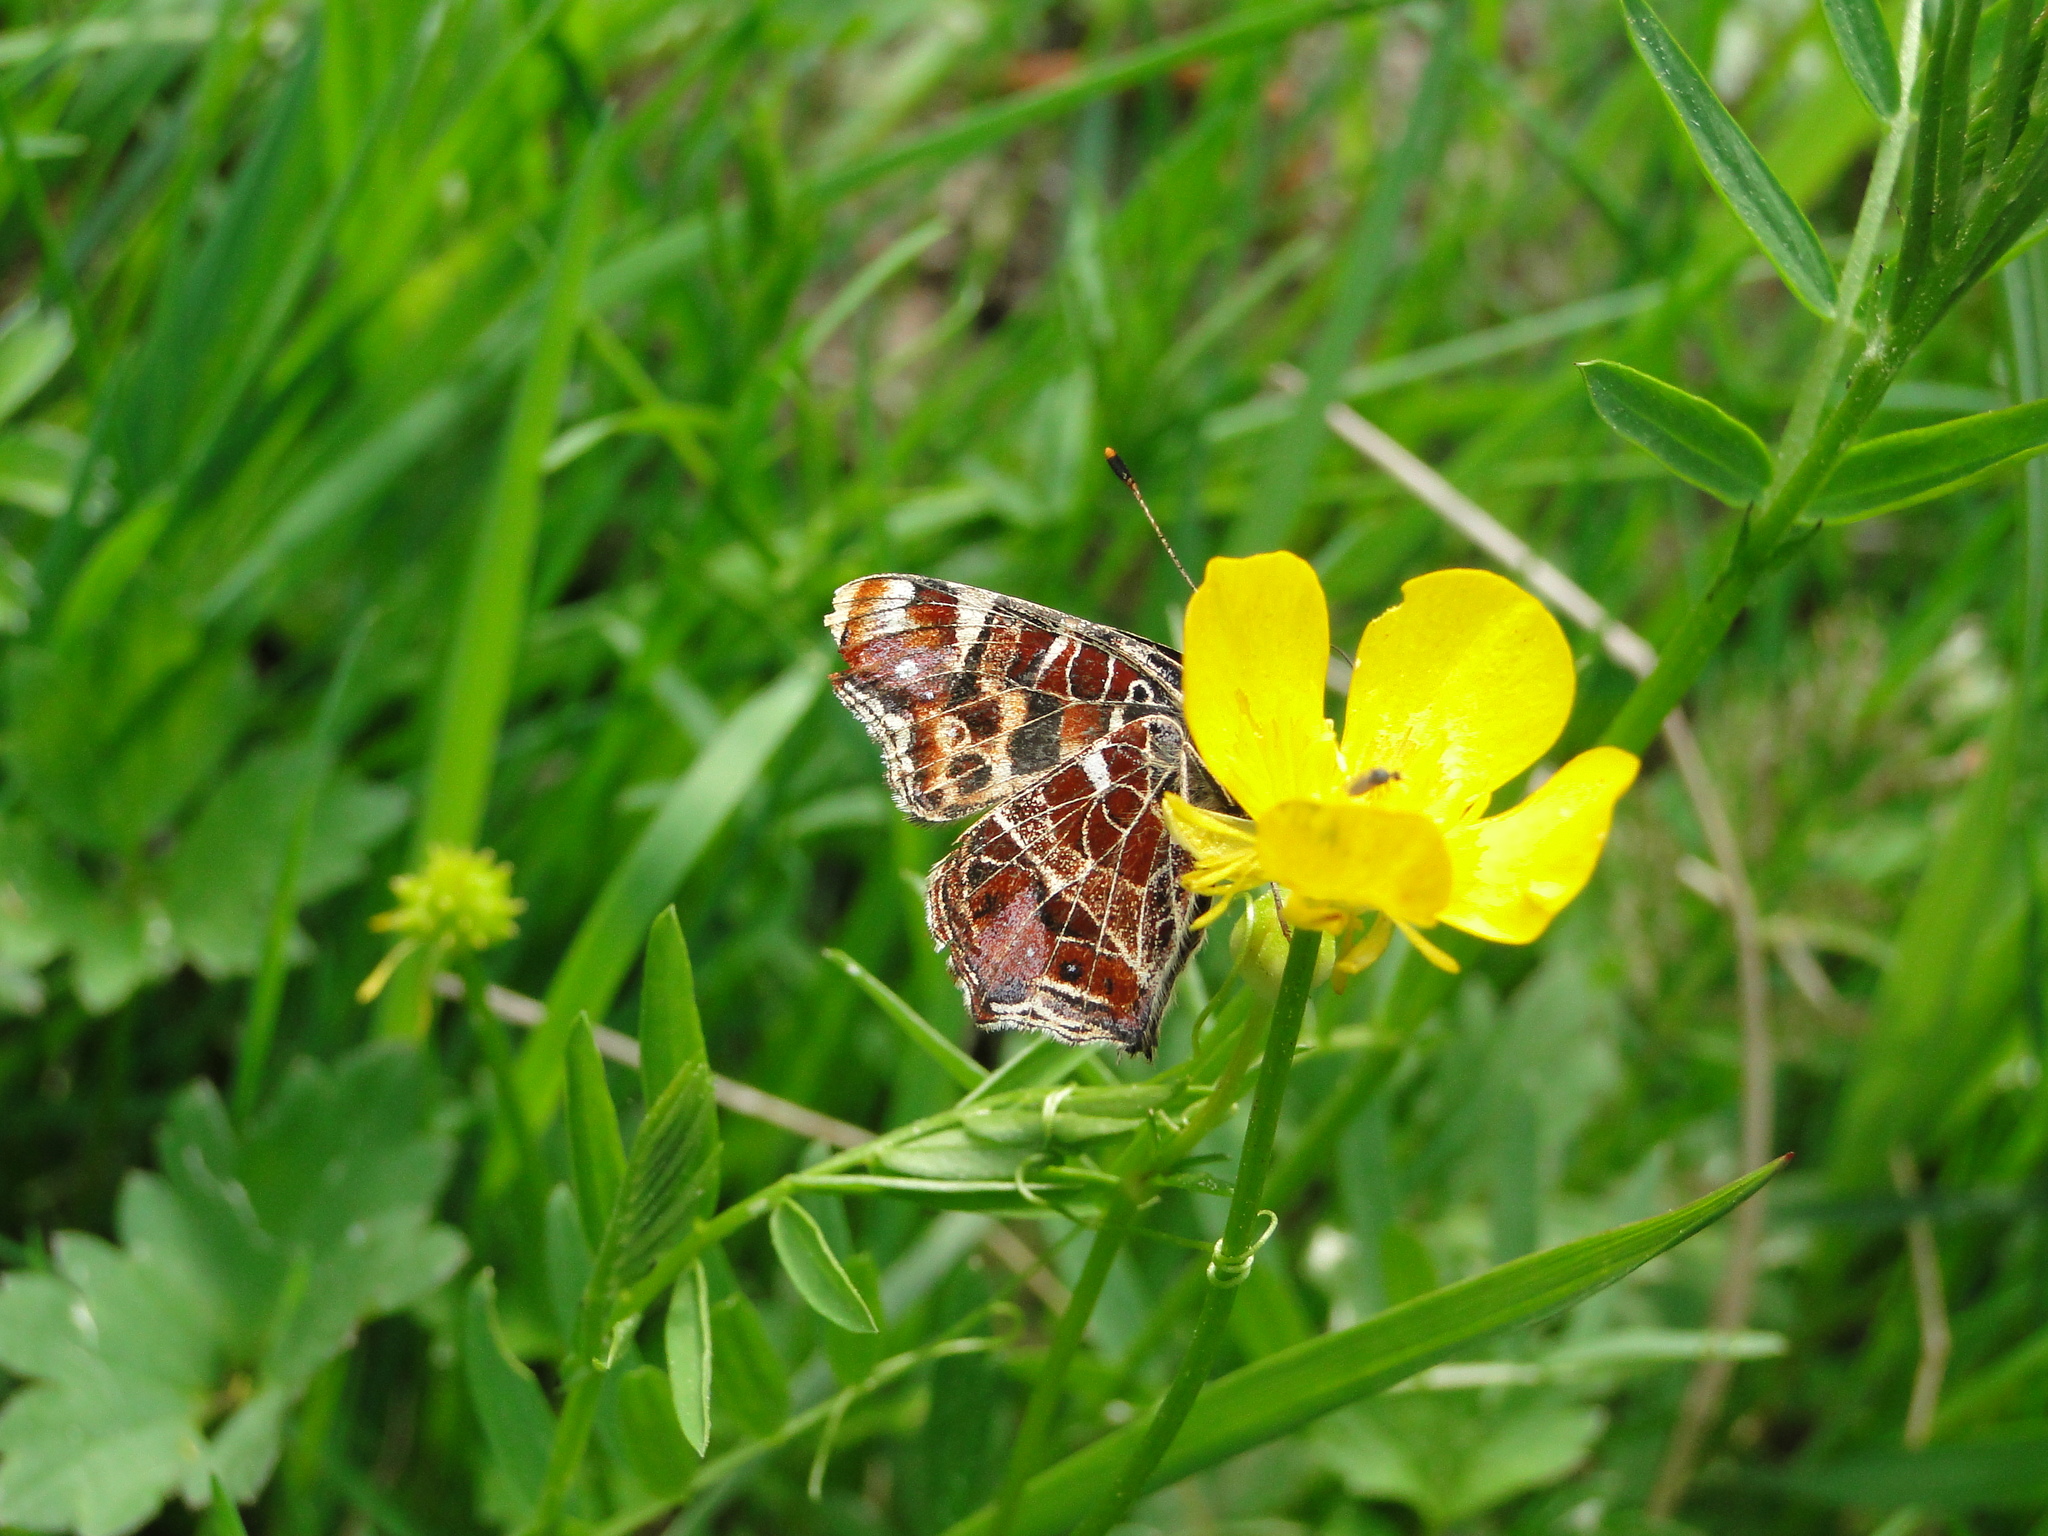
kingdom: Animalia
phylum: Arthropoda
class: Insecta
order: Lepidoptera
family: Nymphalidae
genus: Araschnia
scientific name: Araschnia levana
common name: Map butterfly
